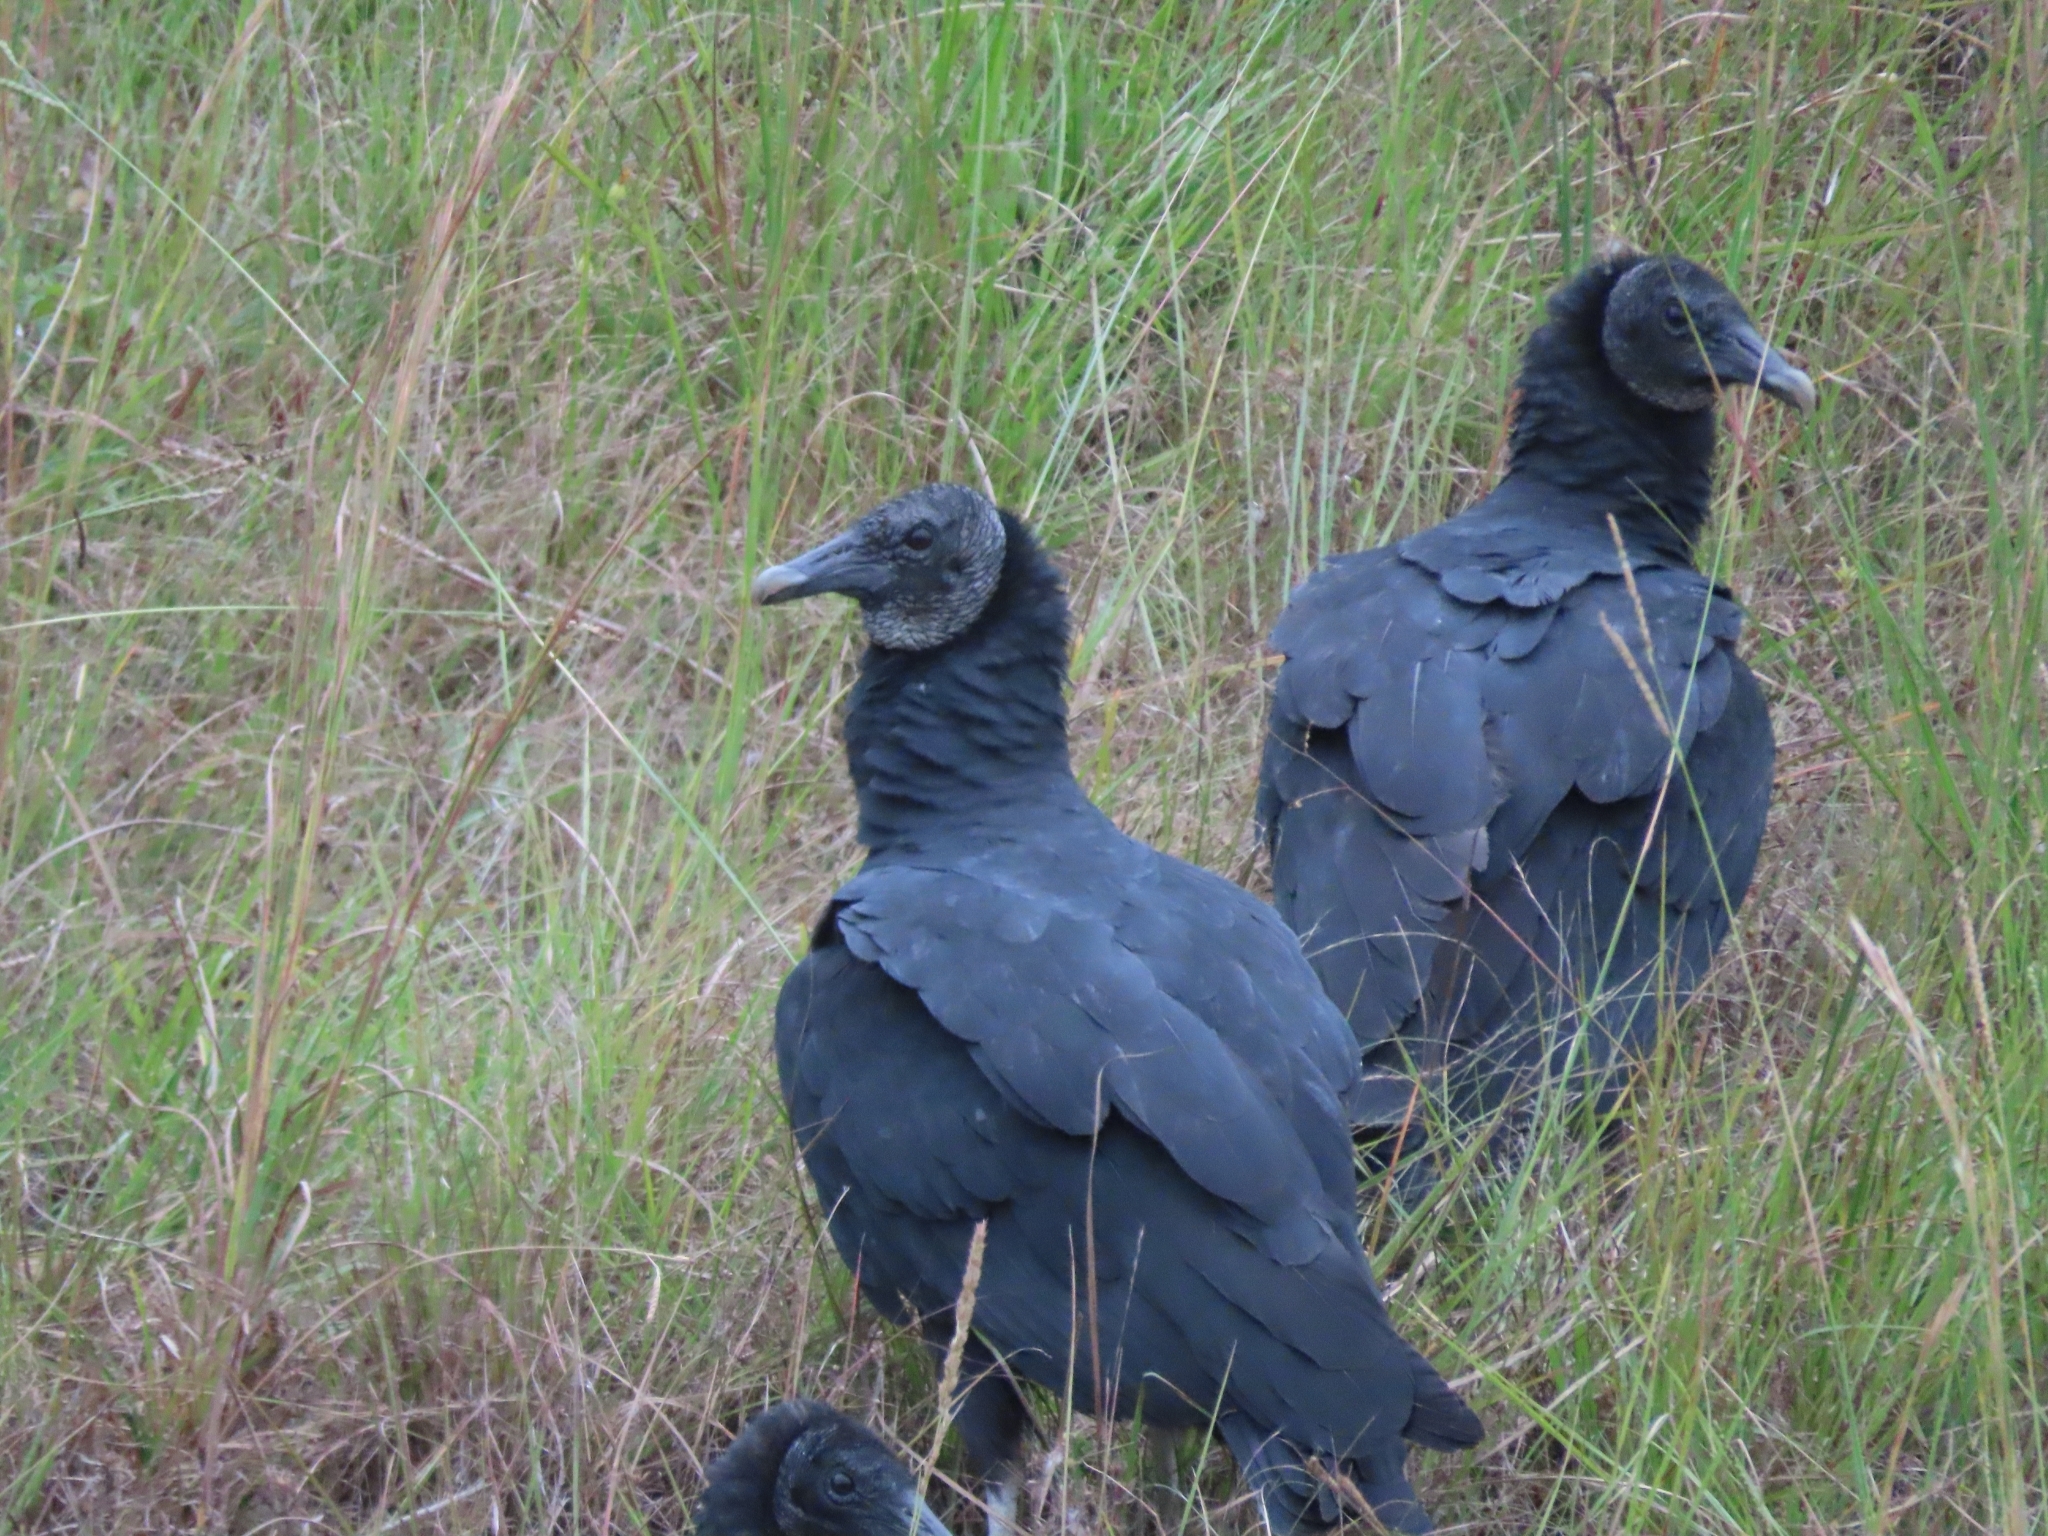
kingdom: Animalia
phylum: Chordata
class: Aves
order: Accipitriformes
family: Cathartidae
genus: Coragyps
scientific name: Coragyps atratus
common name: Black vulture
